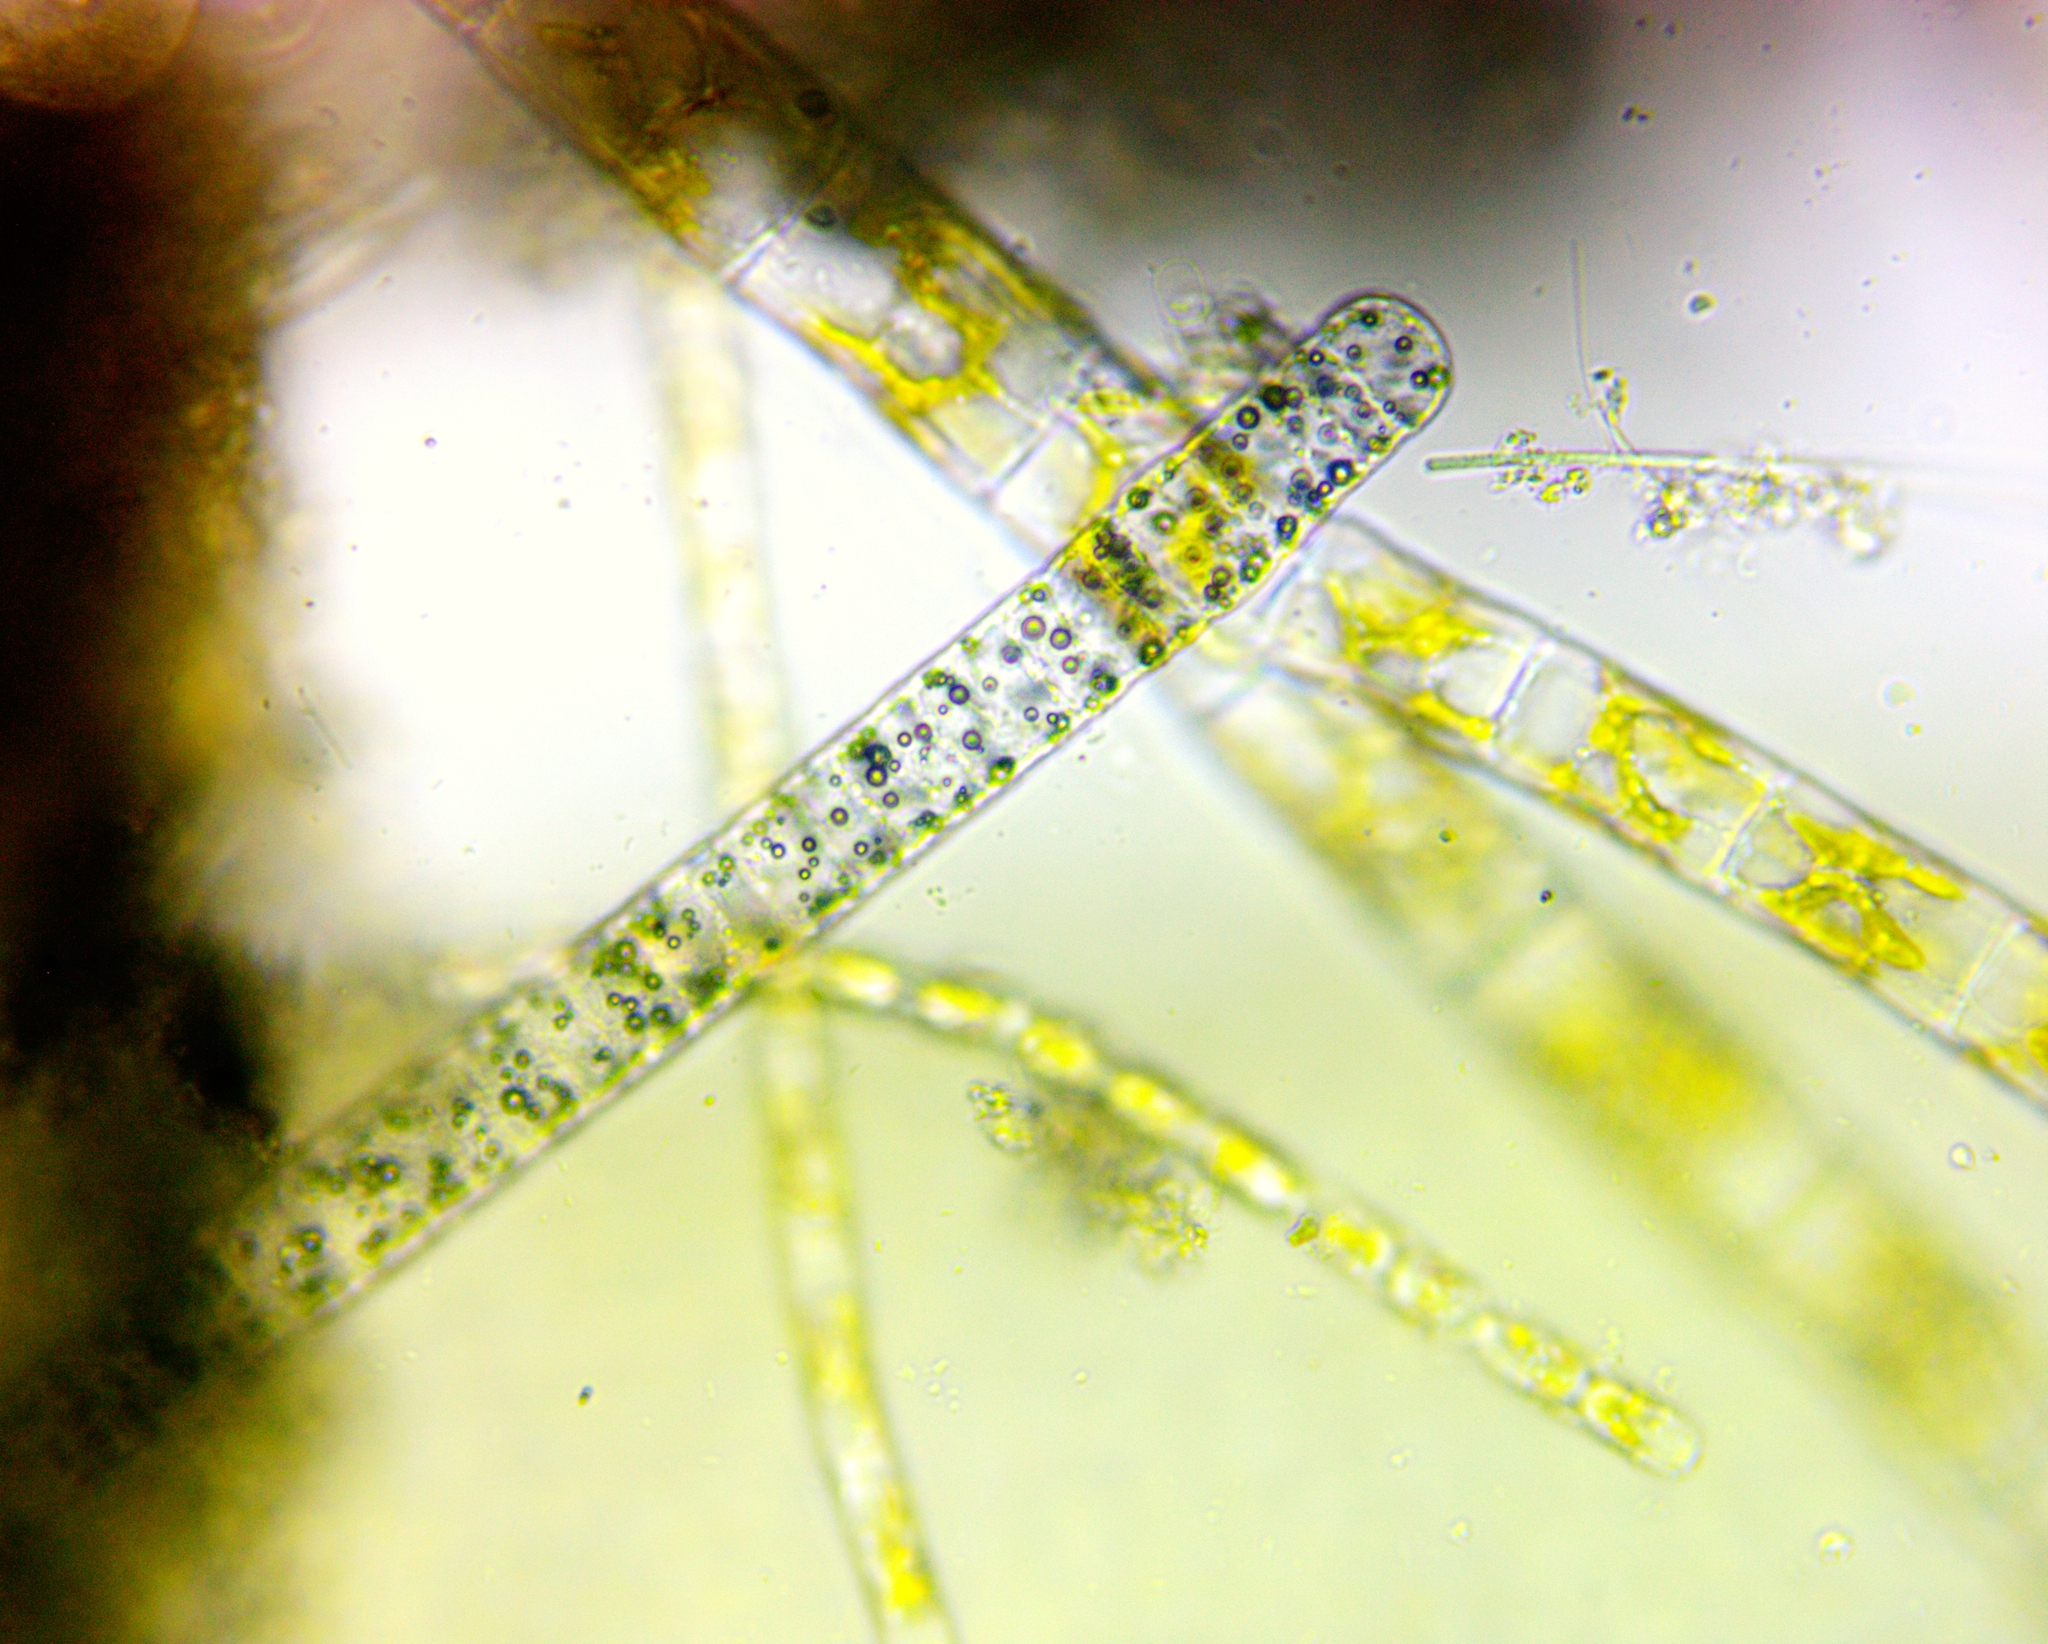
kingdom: Bacteria
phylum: Cyanobacteria
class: Cyanobacteriia
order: Cyanobacteriales
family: Oscillatoriaceae
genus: Havrella
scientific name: Havrella mirabilis
